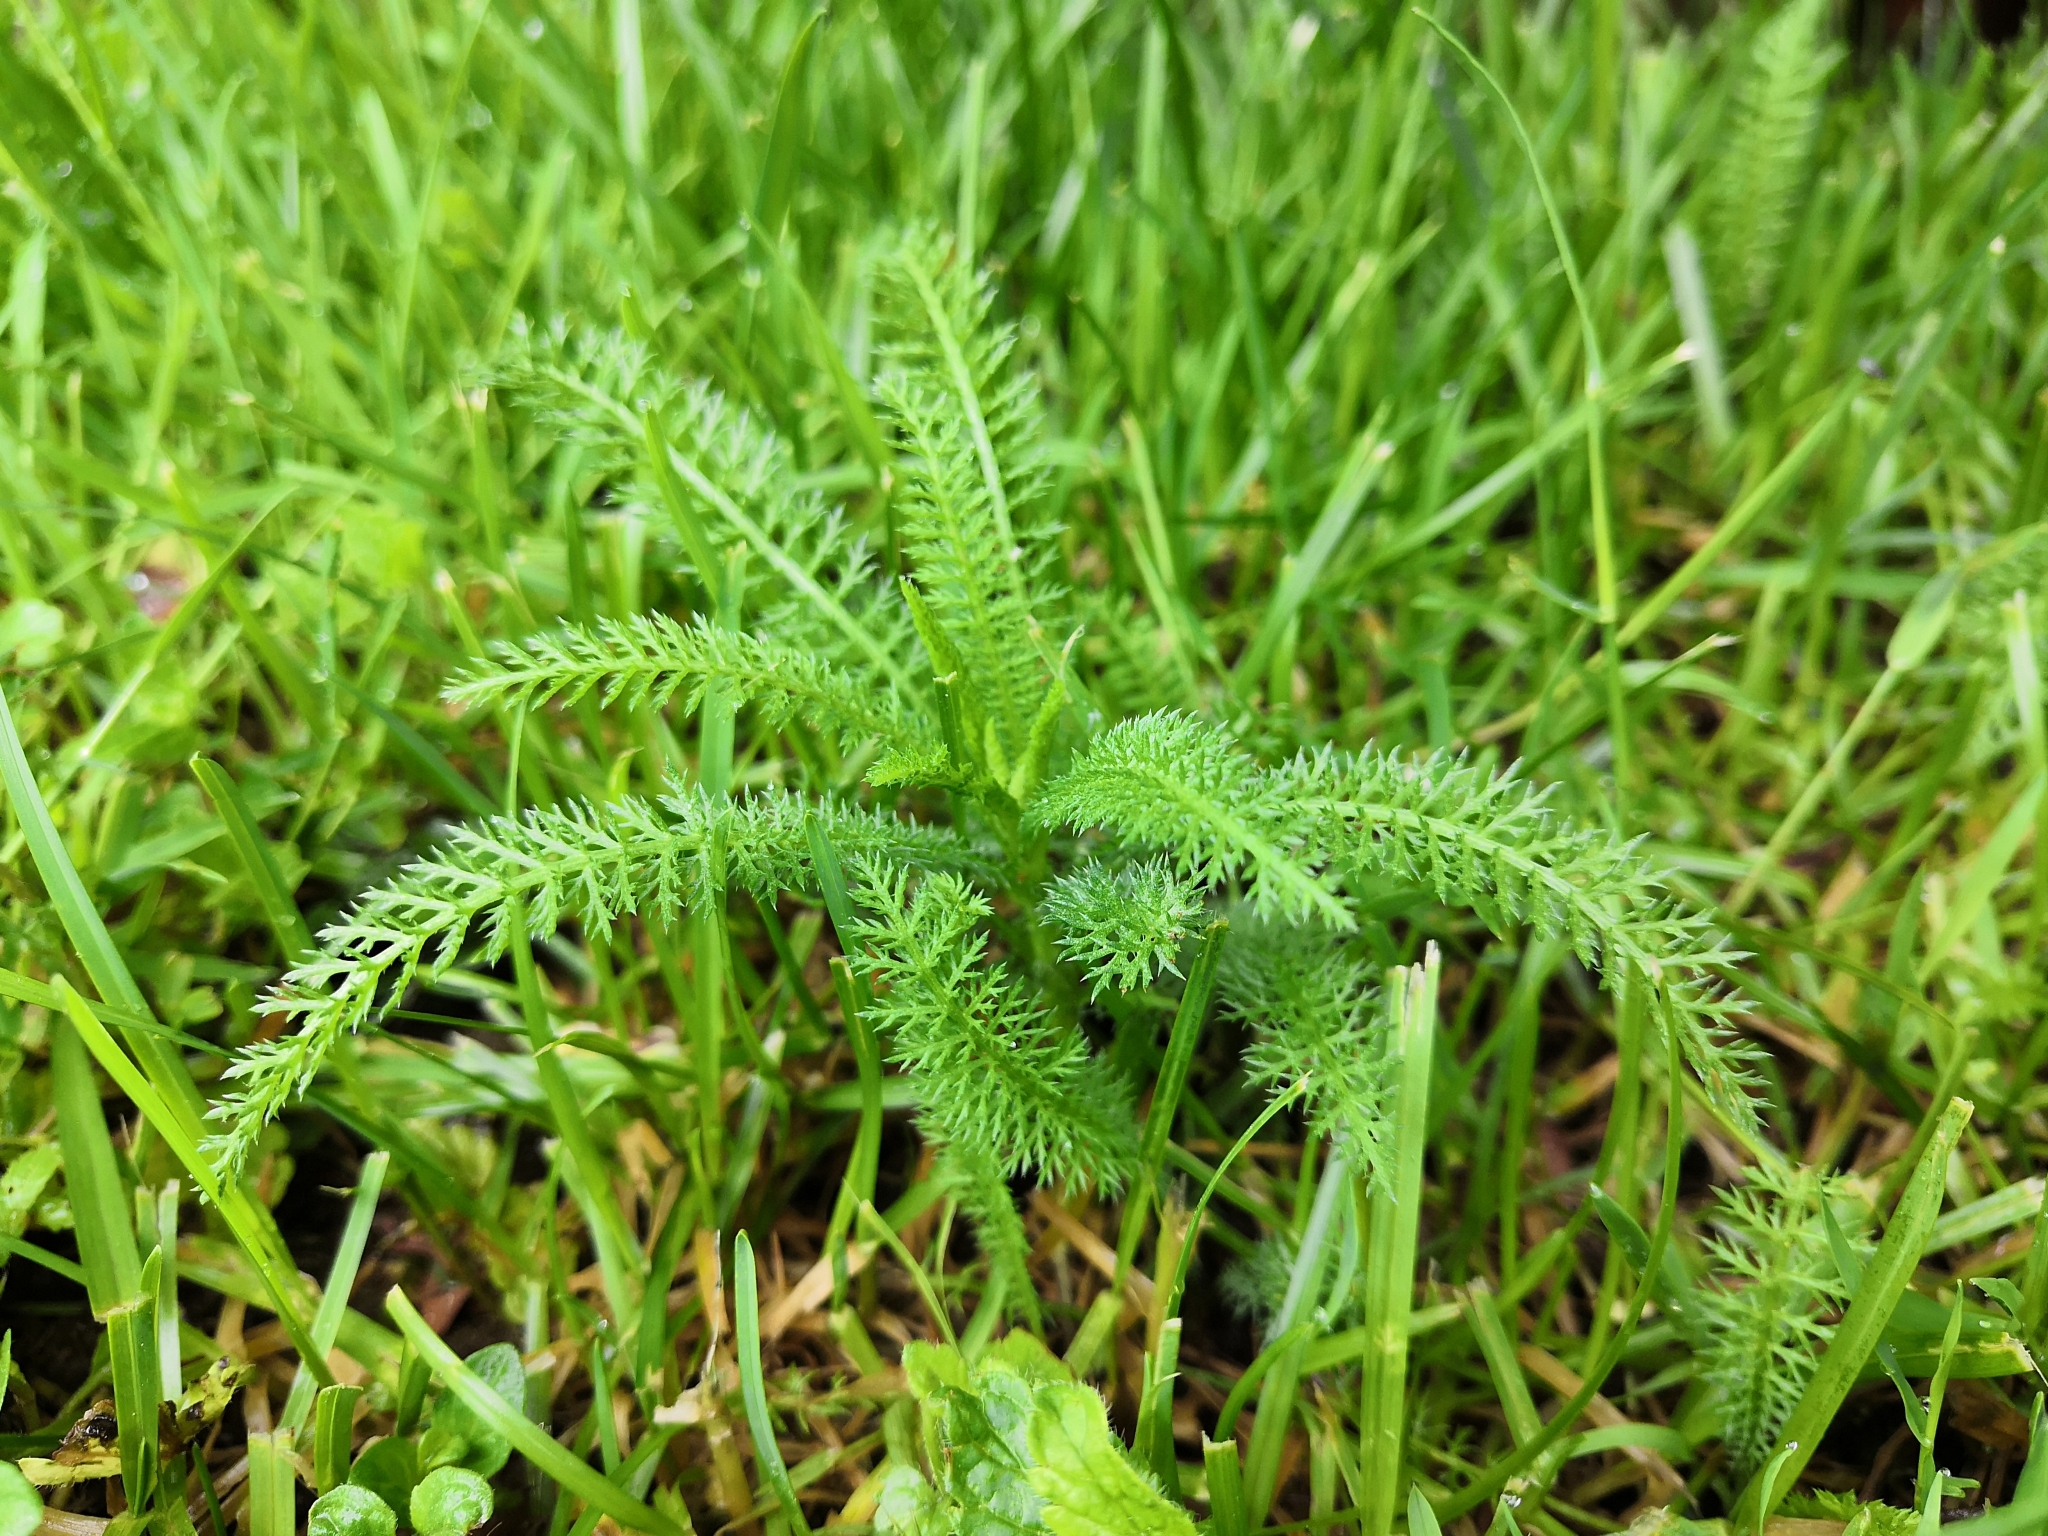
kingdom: Plantae
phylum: Tracheophyta
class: Magnoliopsida
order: Asterales
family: Asteraceae
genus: Achillea
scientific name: Achillea millefolium
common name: Yarrow
